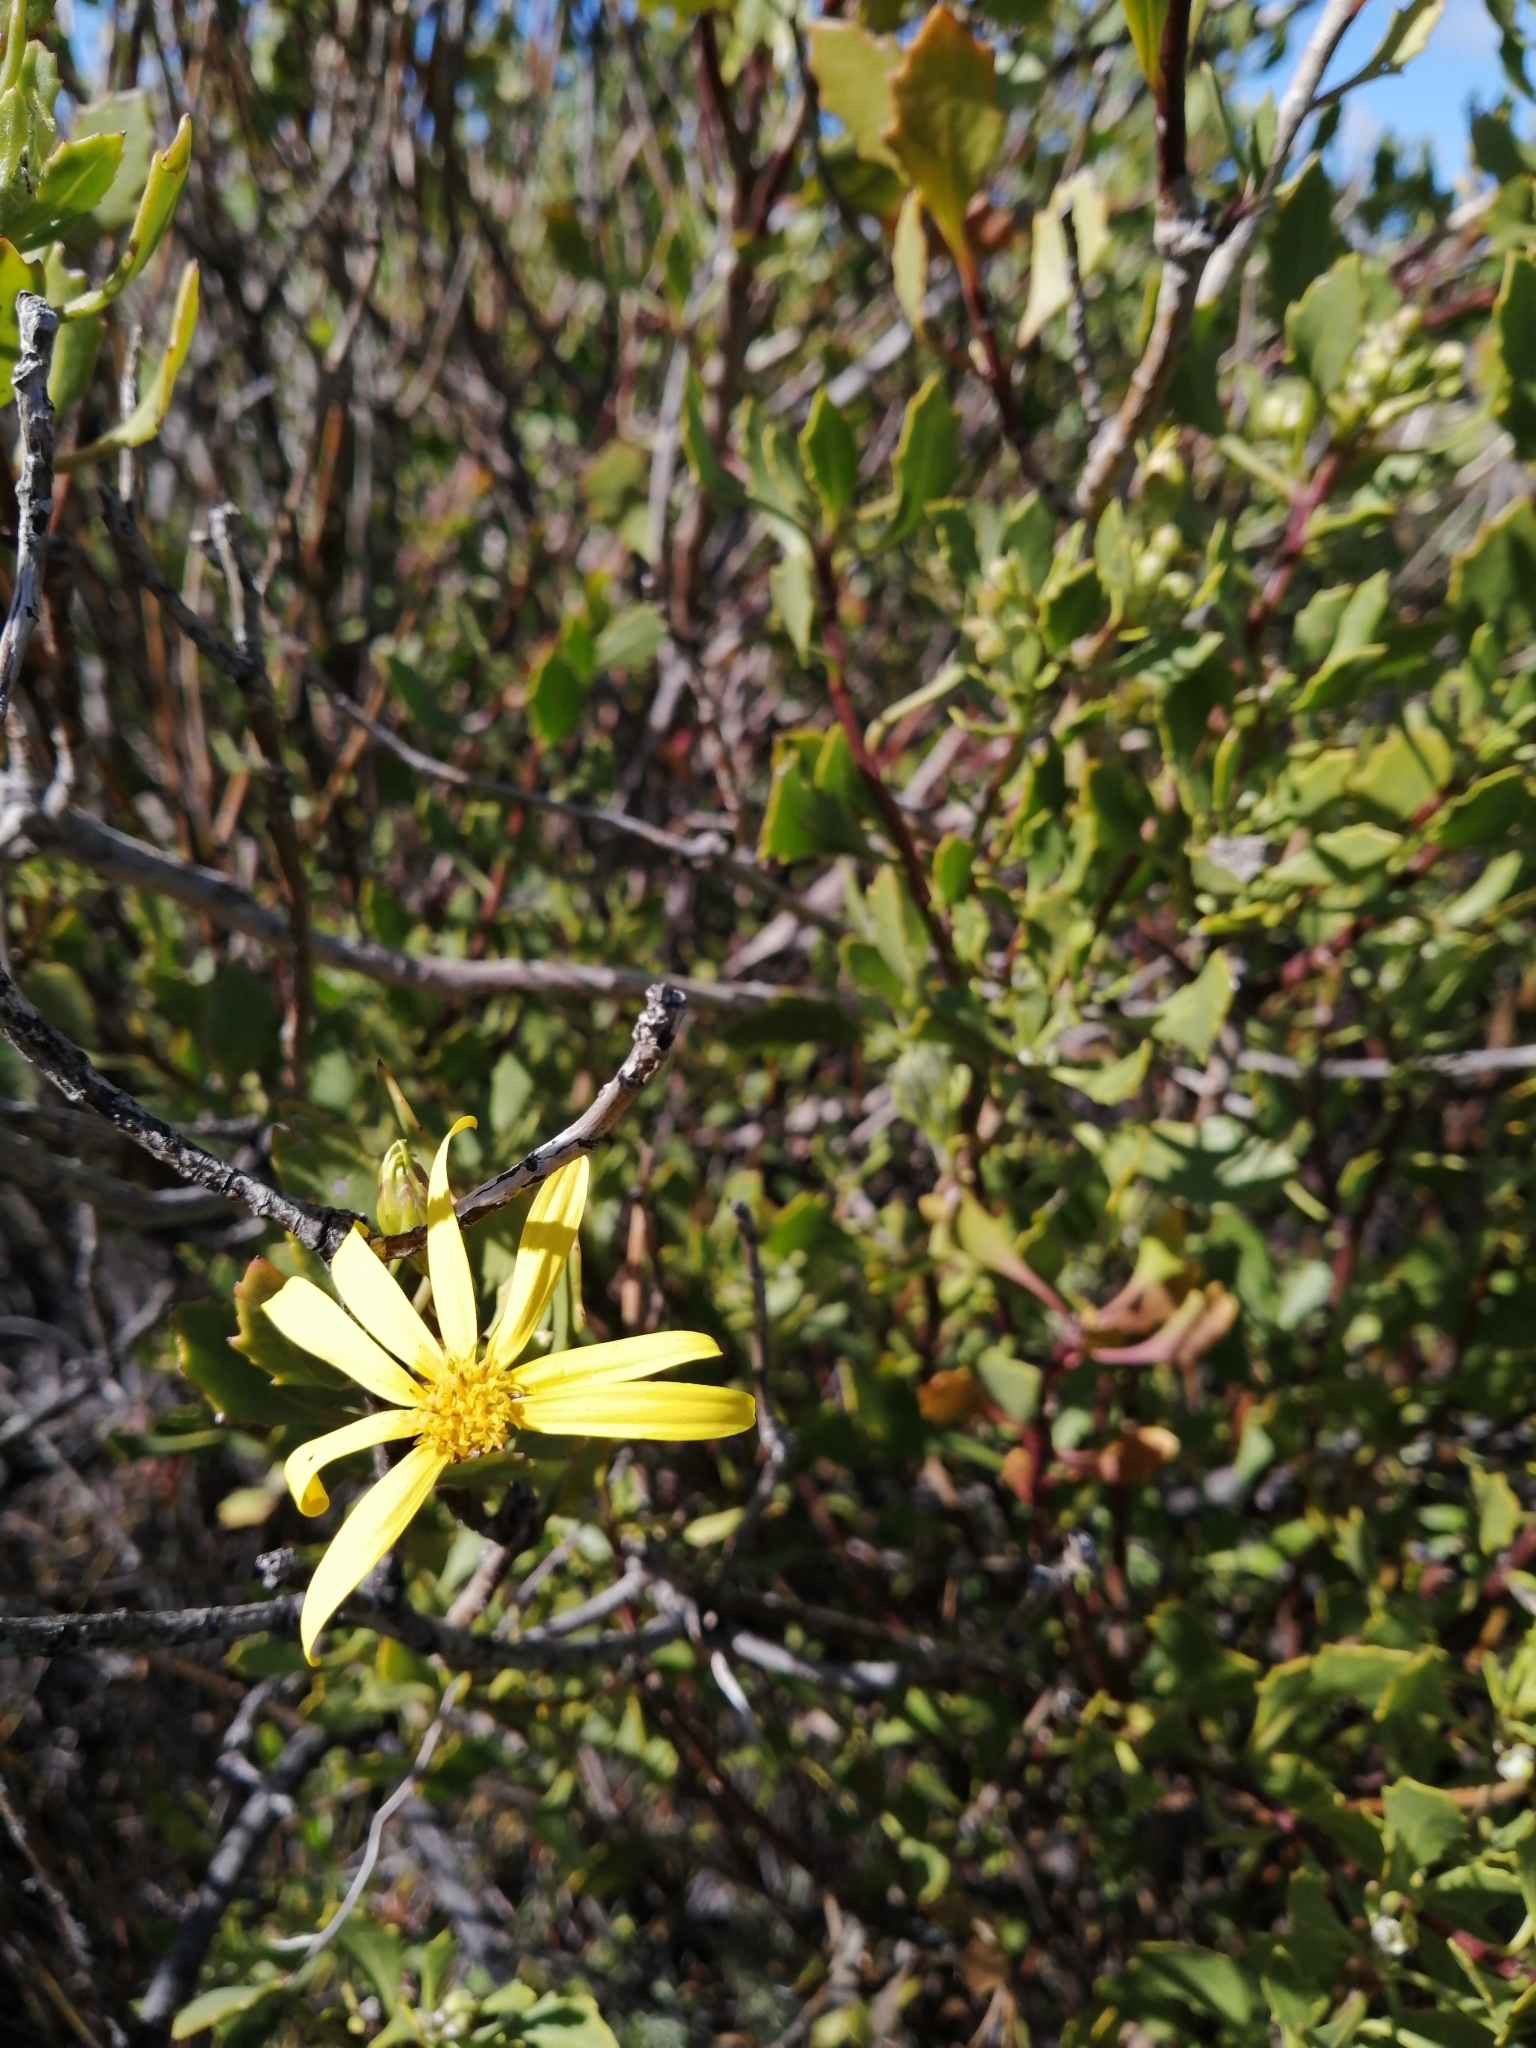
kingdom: Plantae
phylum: Tracheophyta
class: Magnoliopsida
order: Asterales
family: Asteraceae
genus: Osteospermum
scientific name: Osteospermum moniliferum
